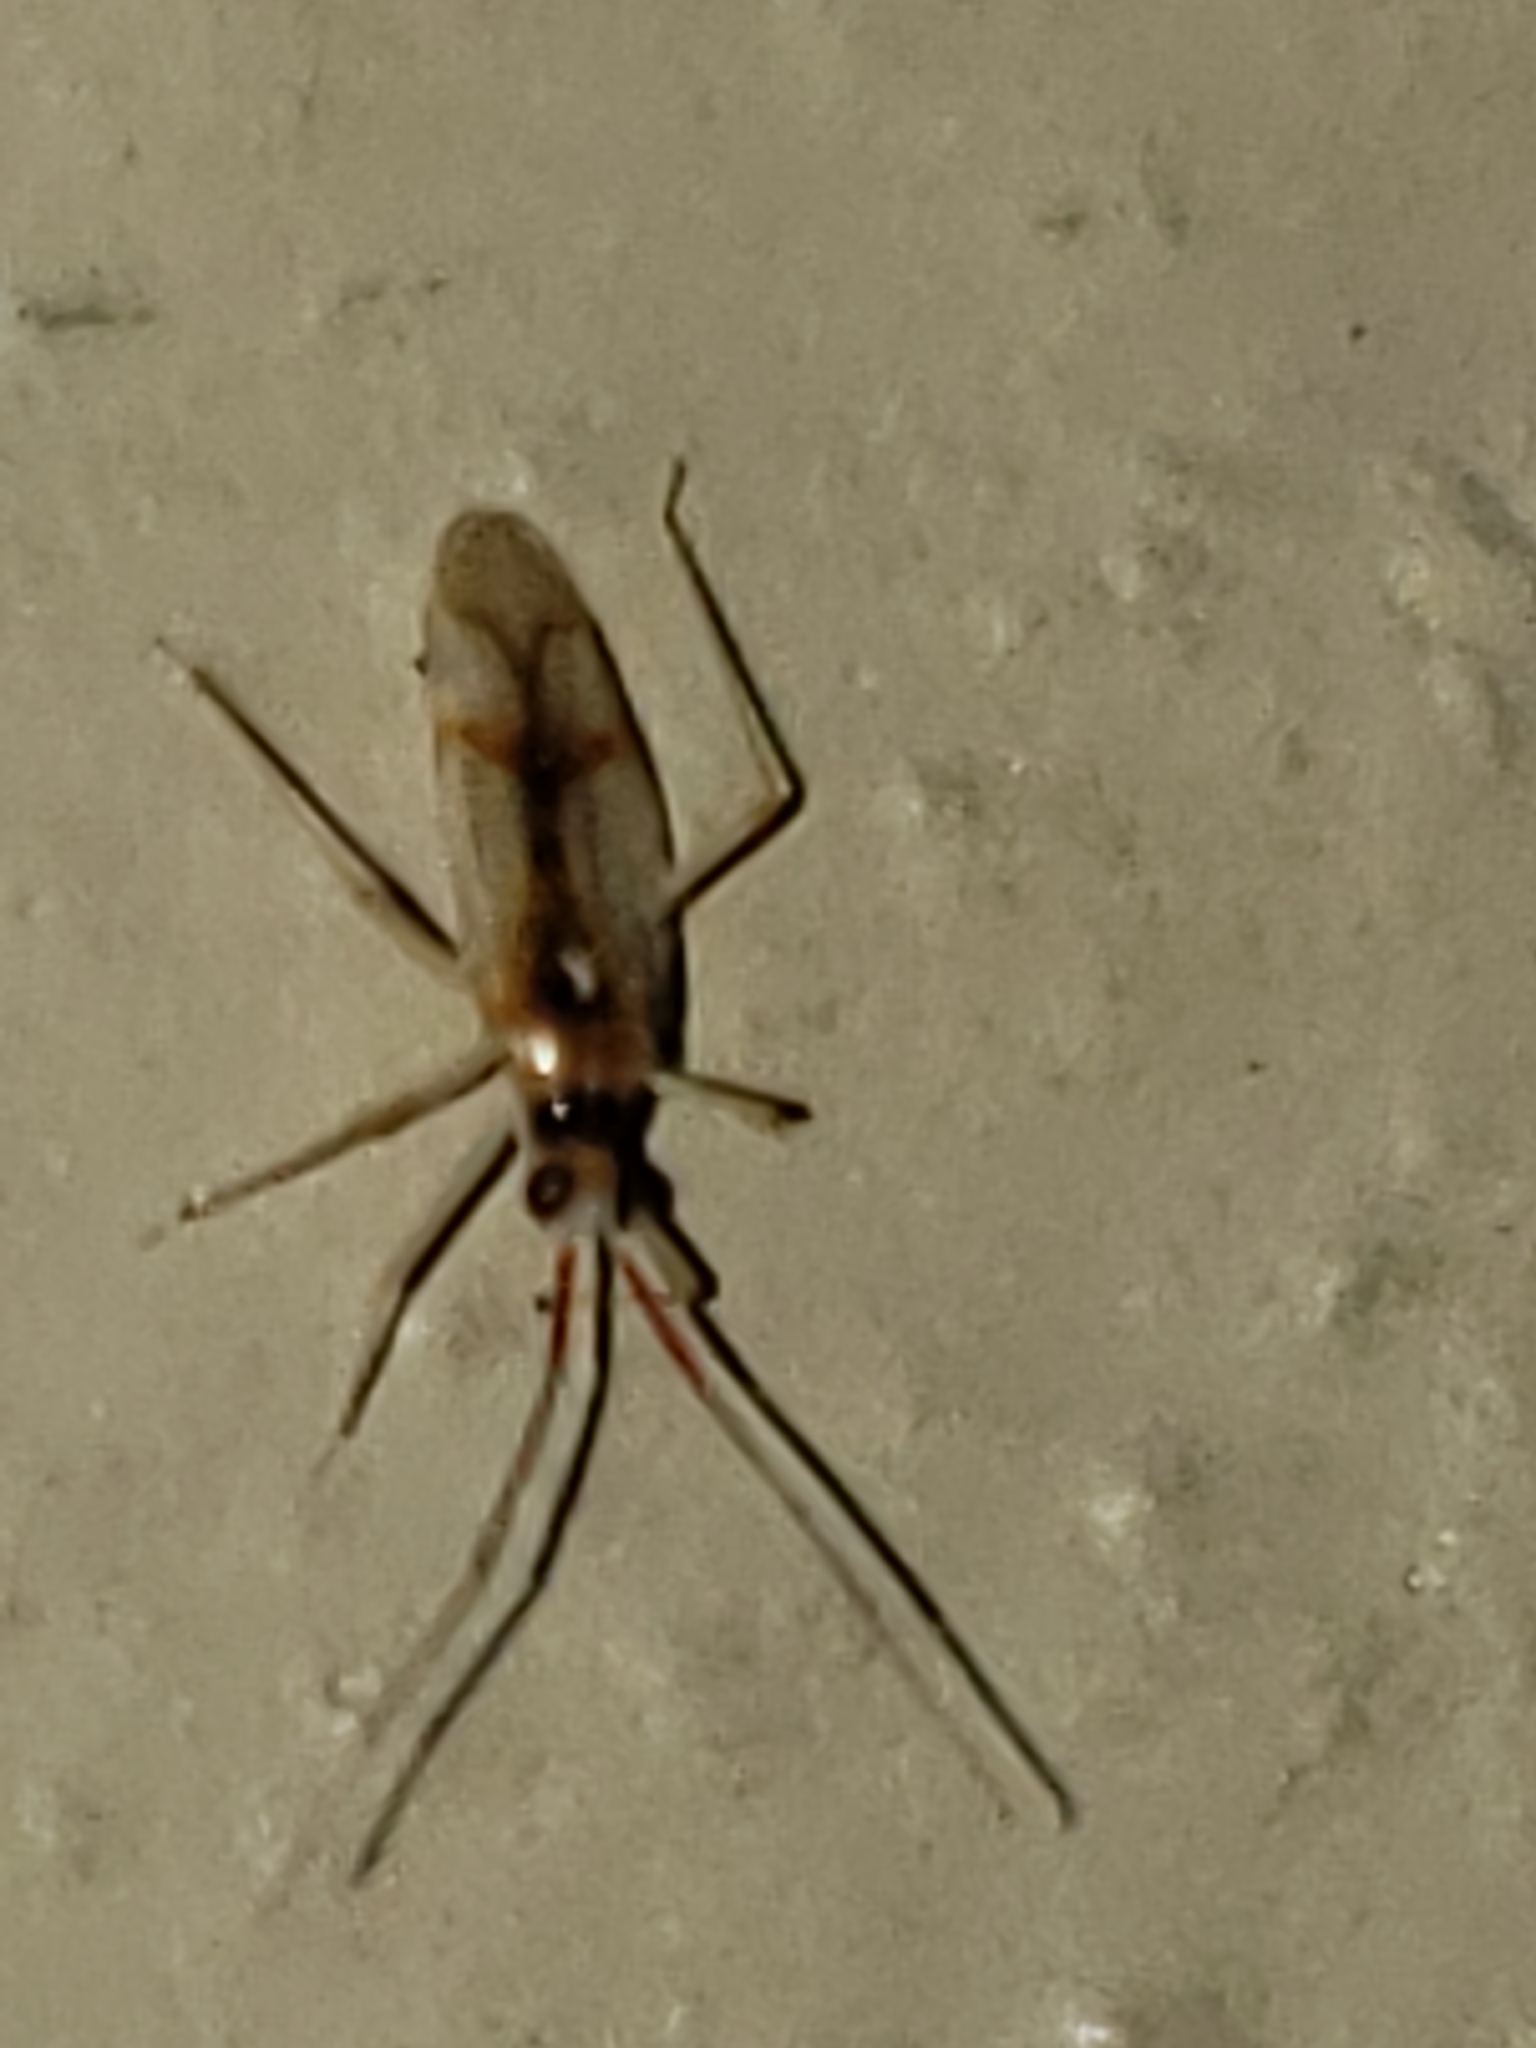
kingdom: Animalia
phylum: Arthropoda
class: Insecta
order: Hemiptera
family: Miridae
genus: Hyaliodes
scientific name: Hyaliodes harti
